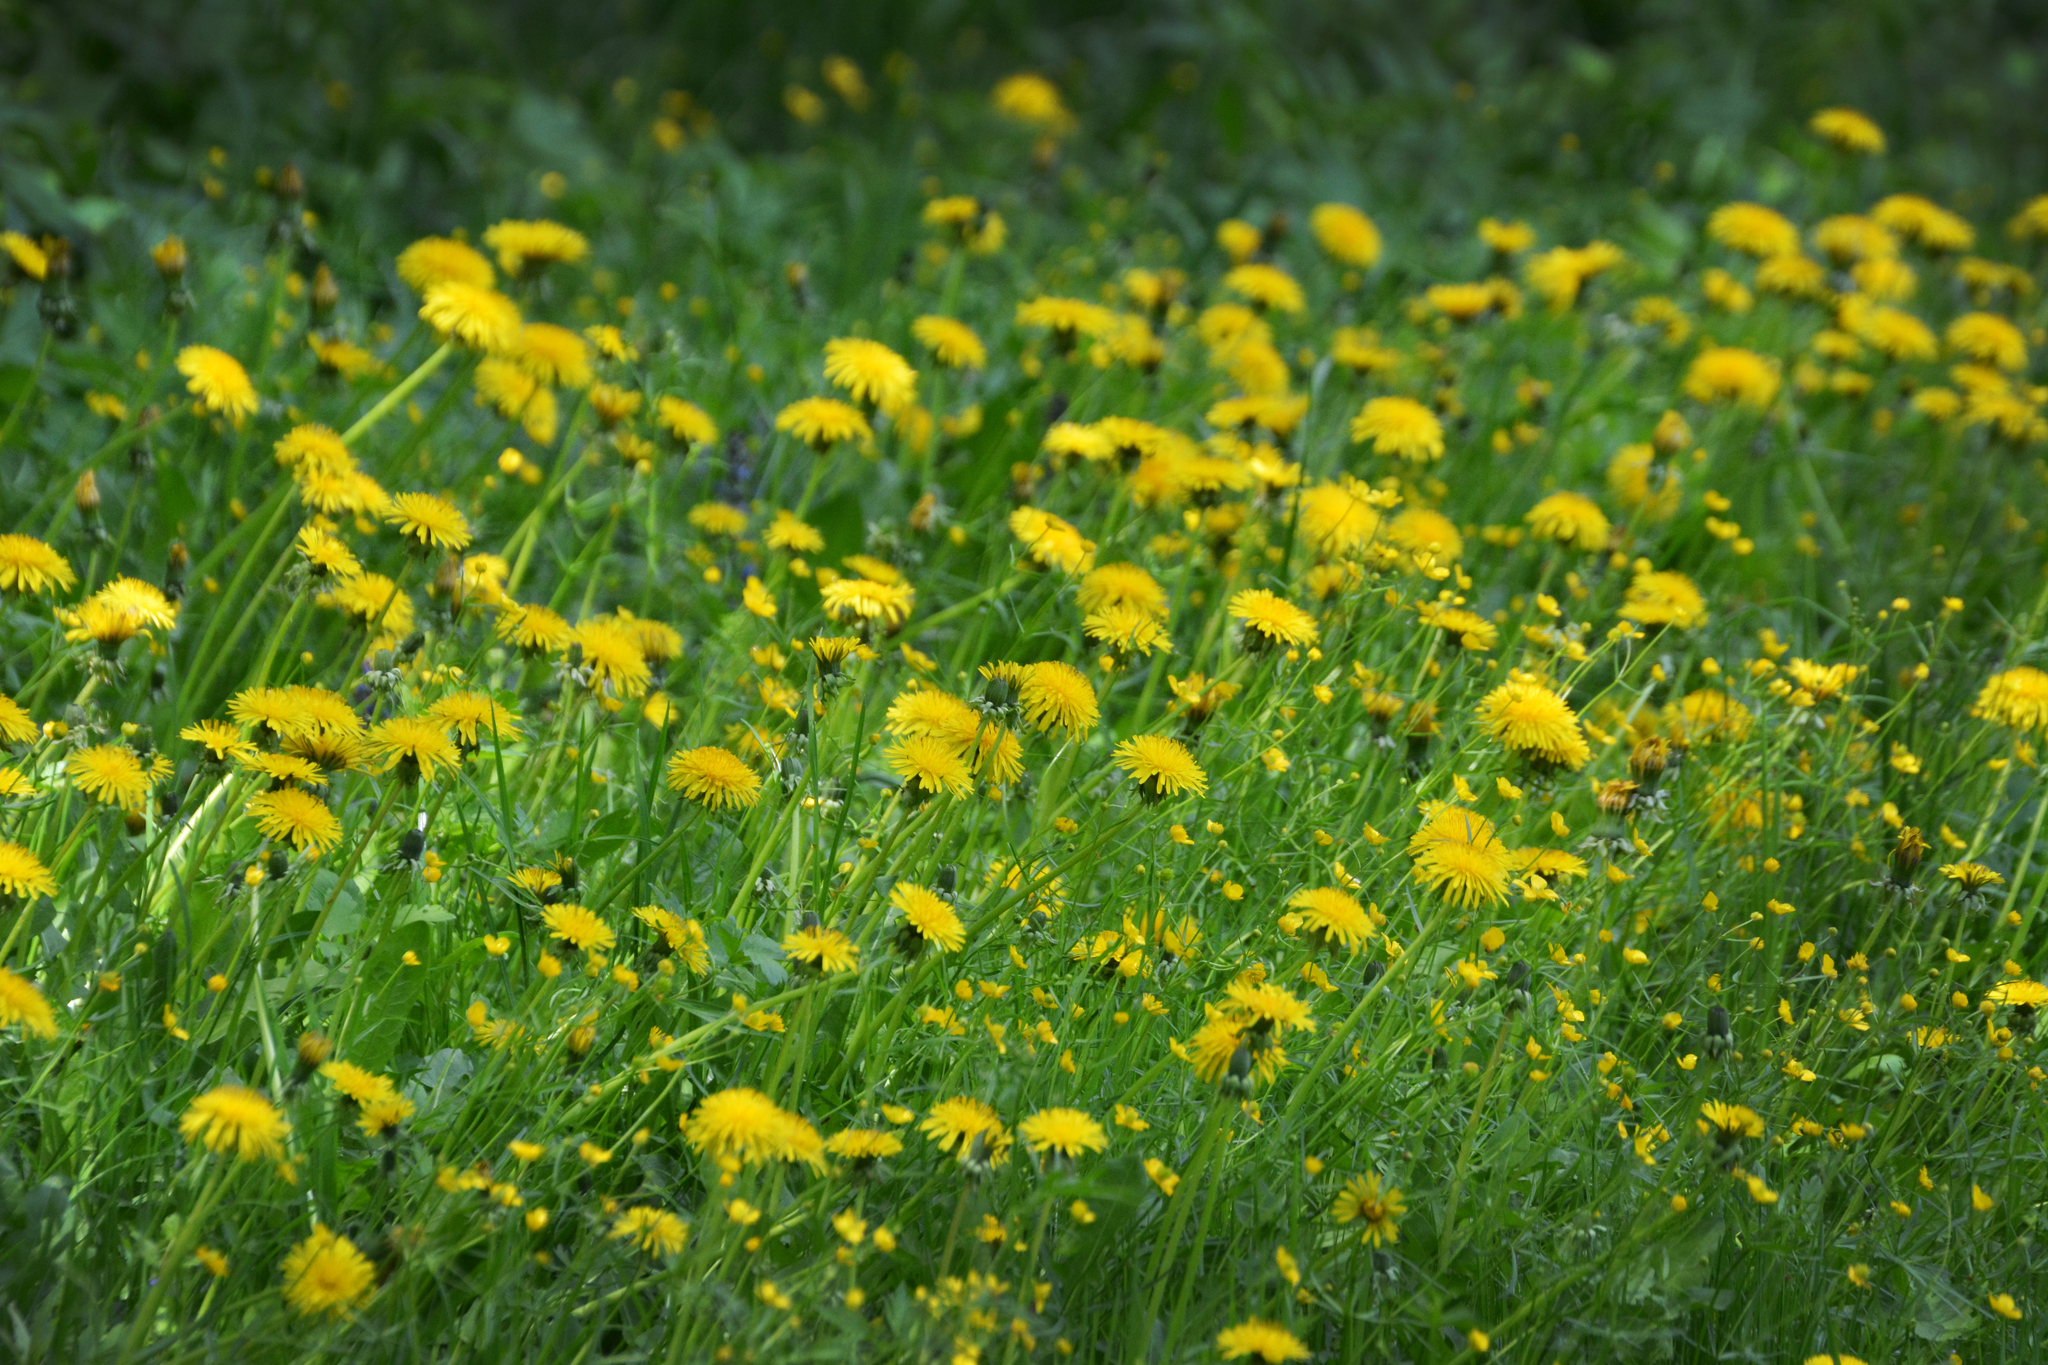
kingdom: Plantae
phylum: Tracheophyta
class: Magnoliopsida
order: Asterales
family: Asteraceae
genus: Taraxacum
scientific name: Taraxacum officinale
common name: Common dandelion
